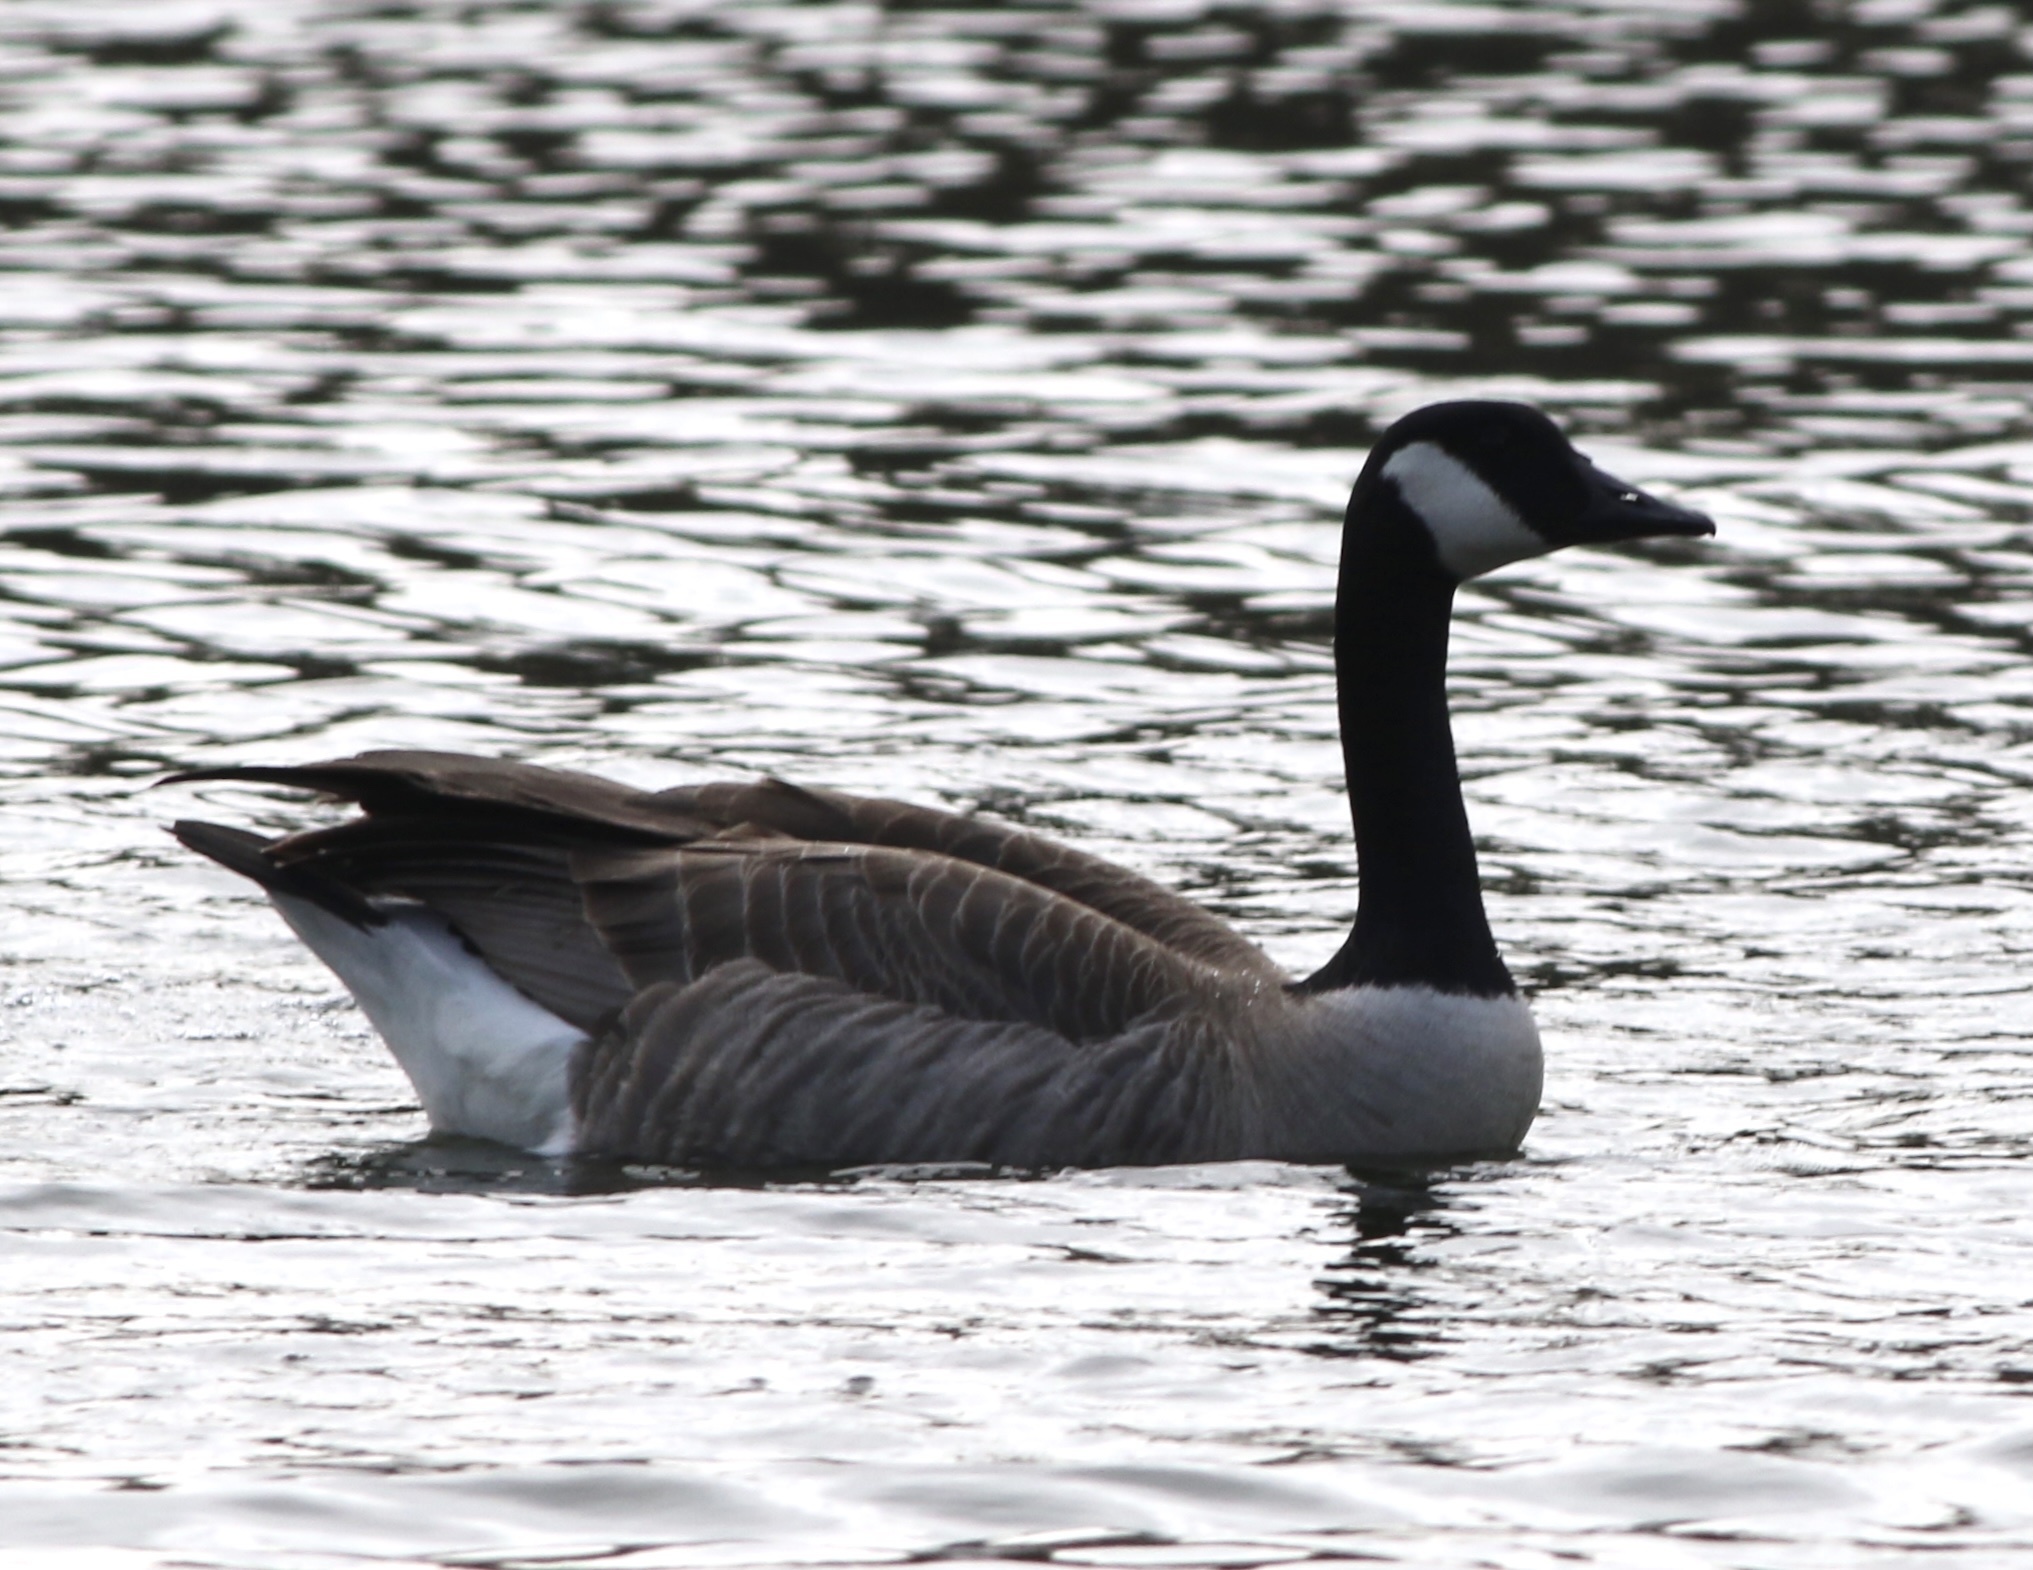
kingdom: Animalia
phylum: Chordata
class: Aves
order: Anseriformes
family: Anatidae
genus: Branta
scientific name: Branta canadensis
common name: Canada goose
